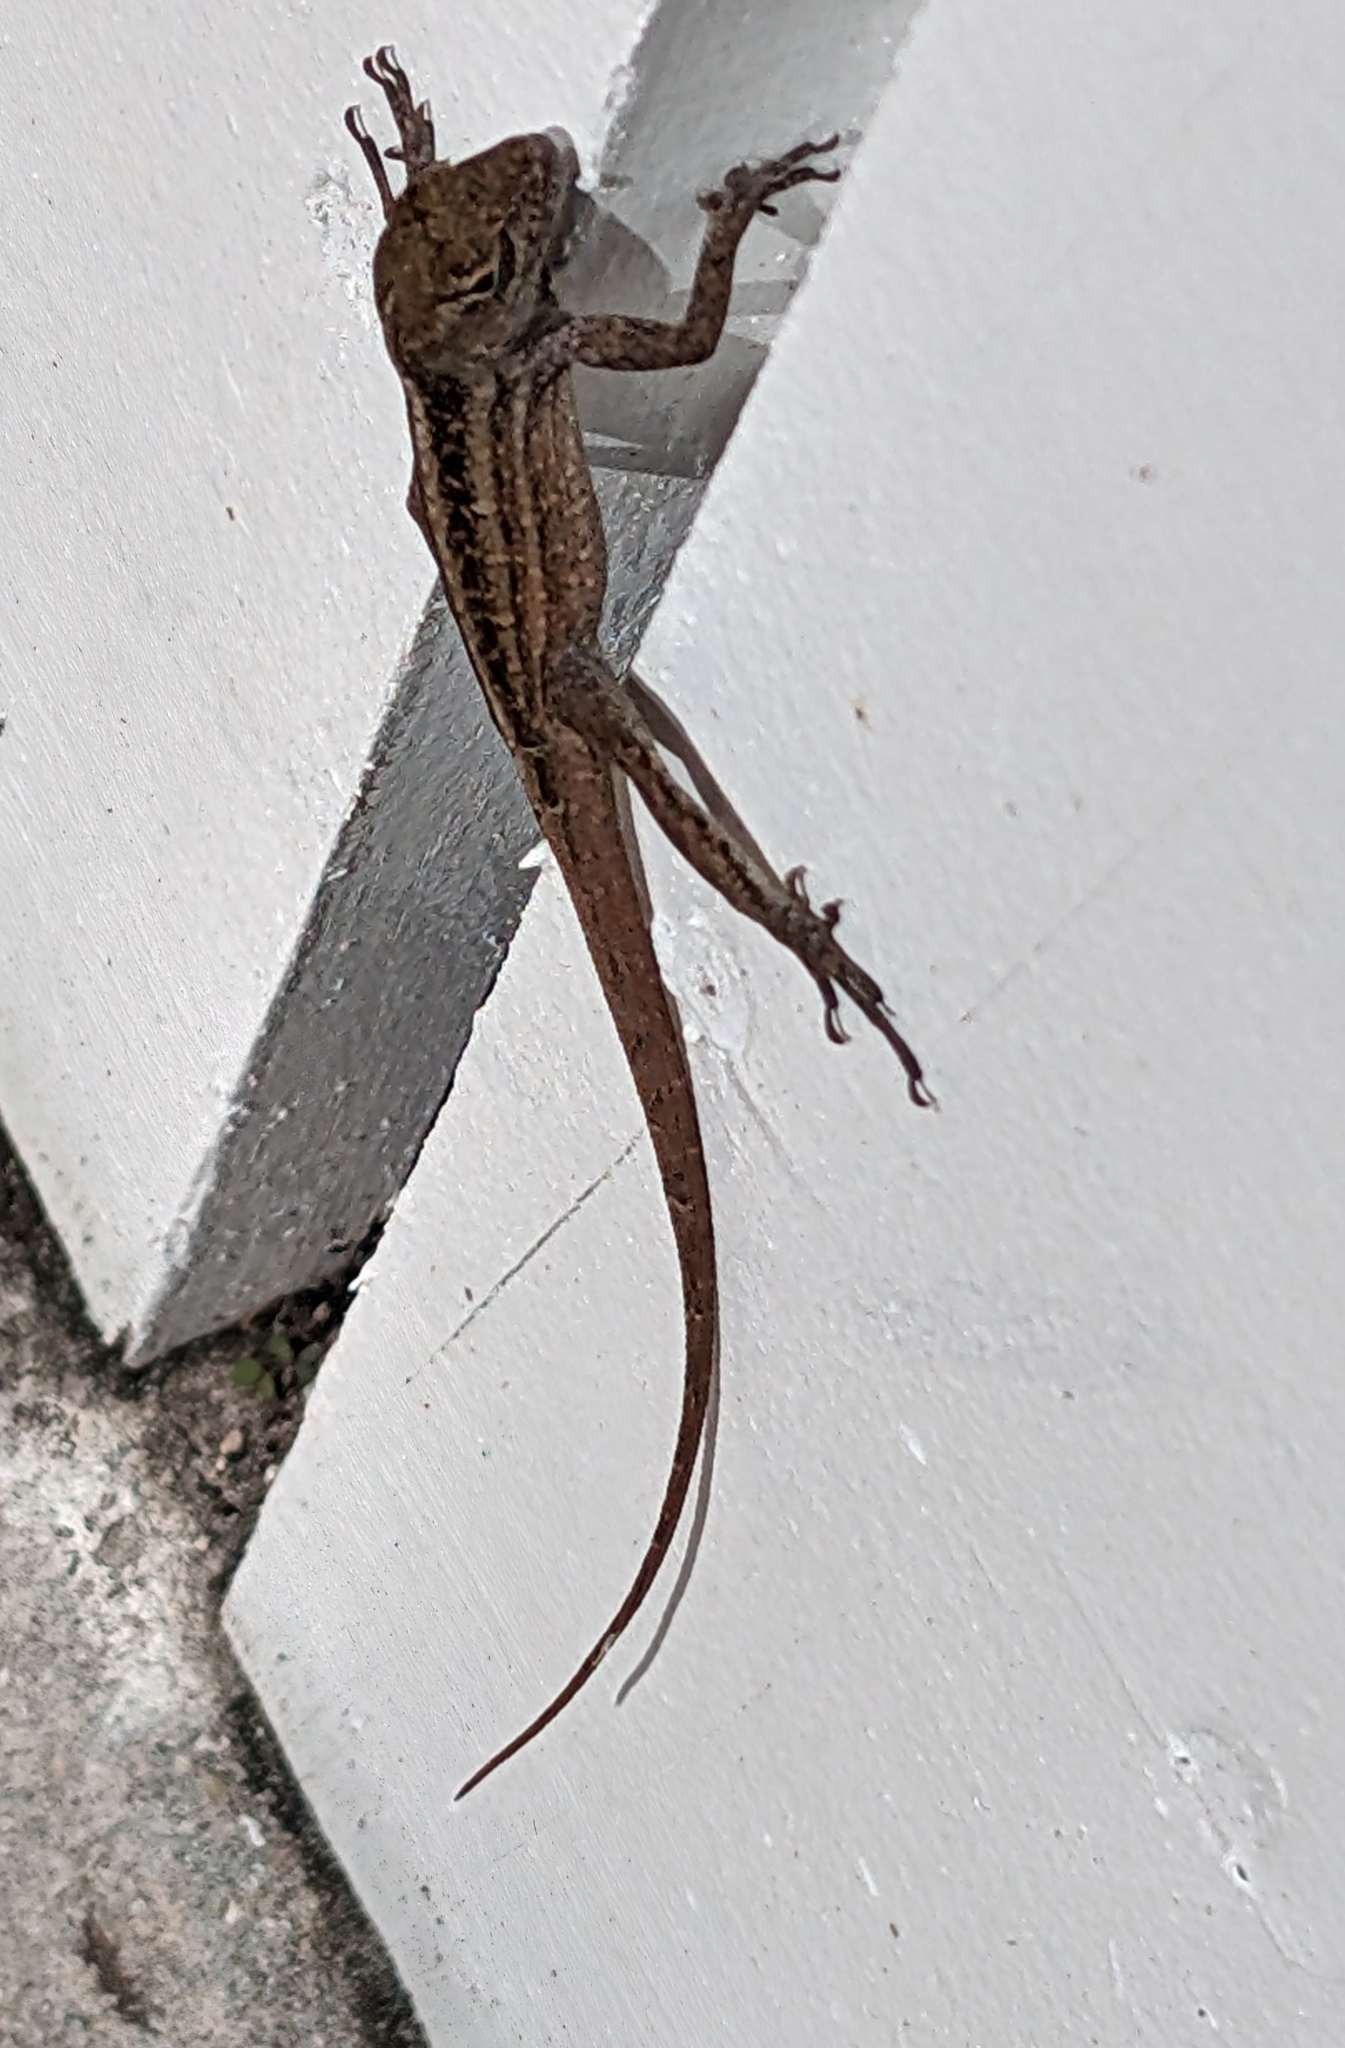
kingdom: Animalia
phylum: Chordata
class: Squamata
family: Dactyloidae
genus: Anolis
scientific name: Anolis sagrei
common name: Brown anole
